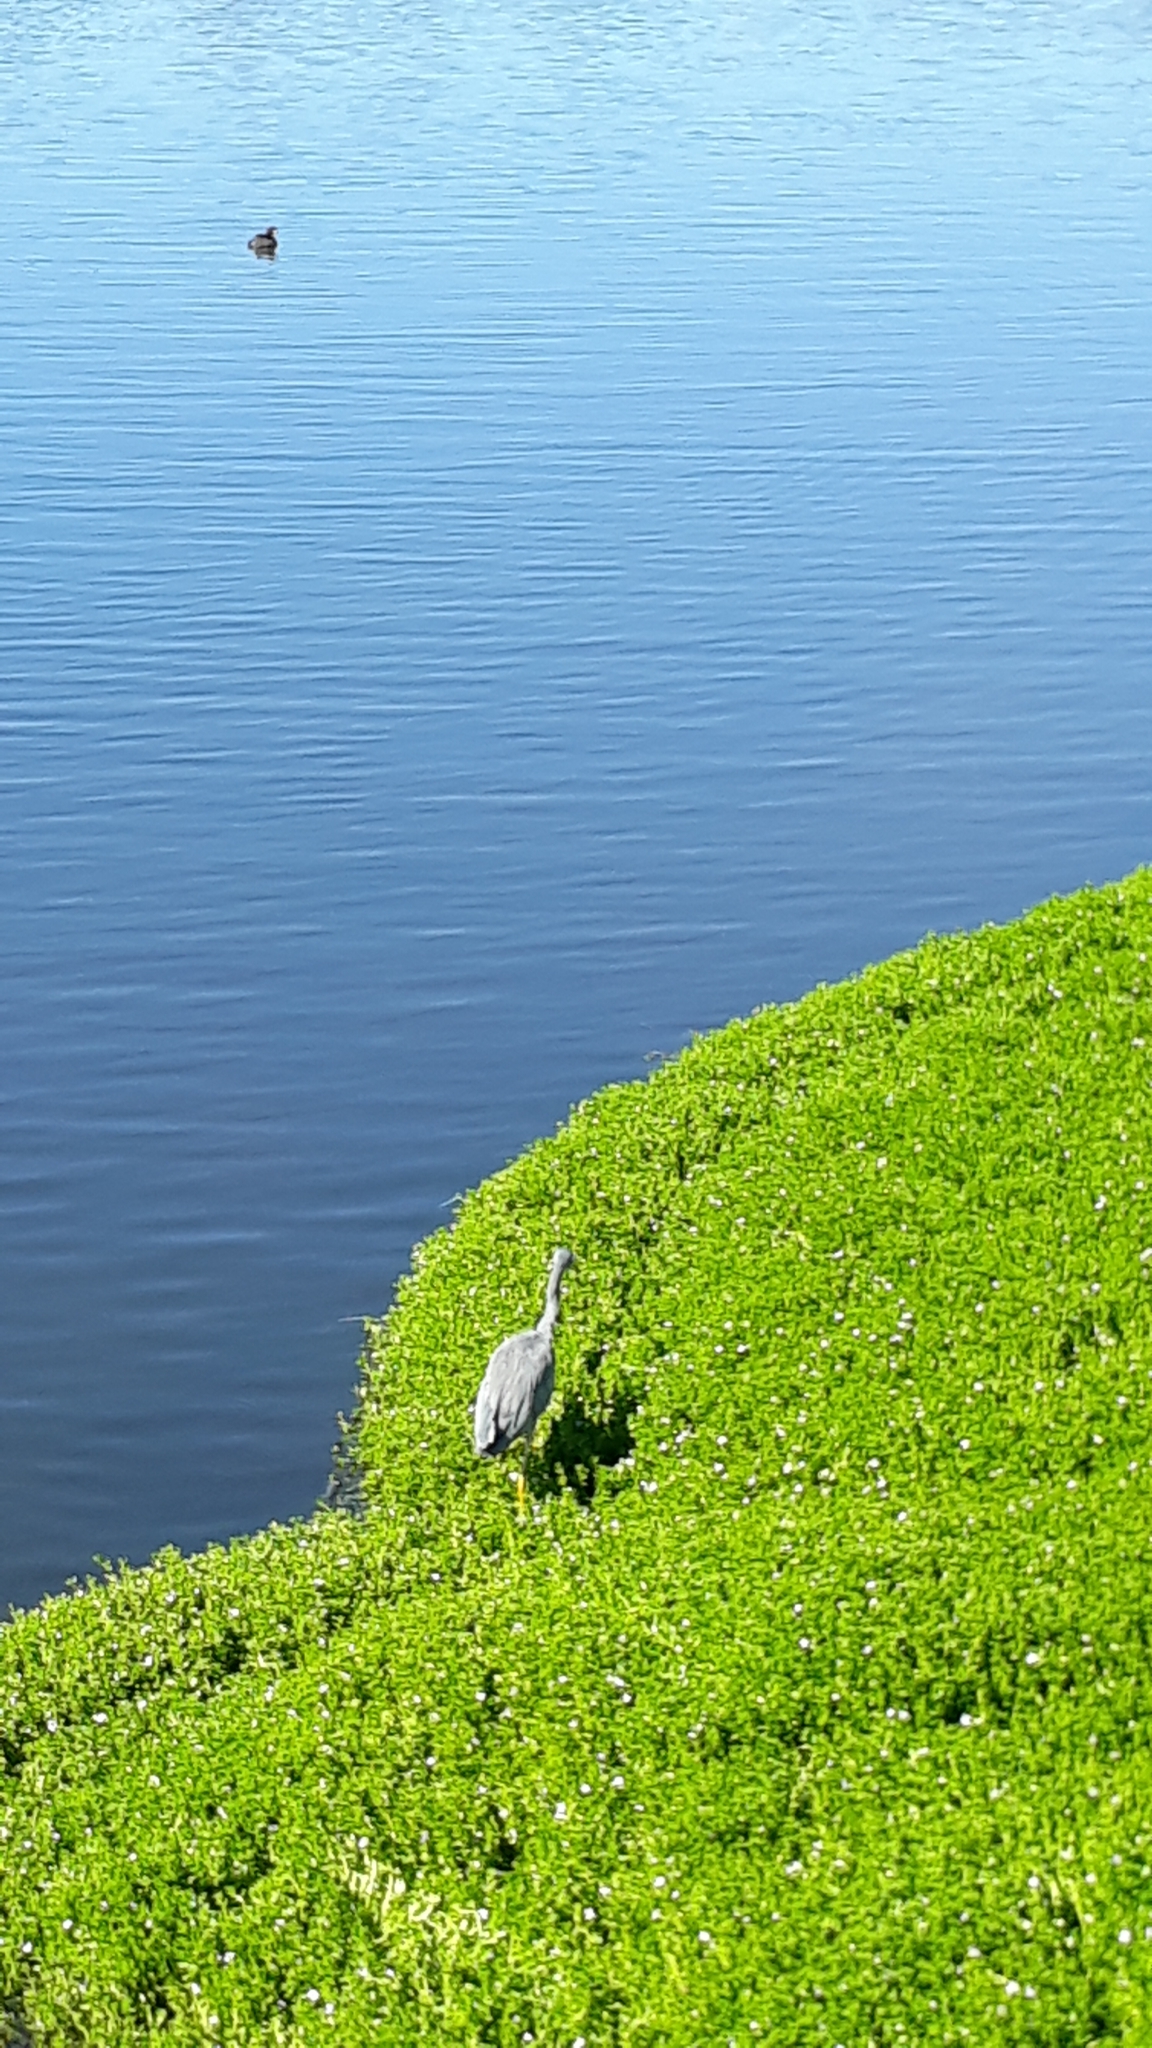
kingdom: Animalia
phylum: Chordata
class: Aves
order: Pelecaniformes
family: Ardeidae
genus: Egretta
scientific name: Egretta novaehollandiae
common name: White-faced heron
